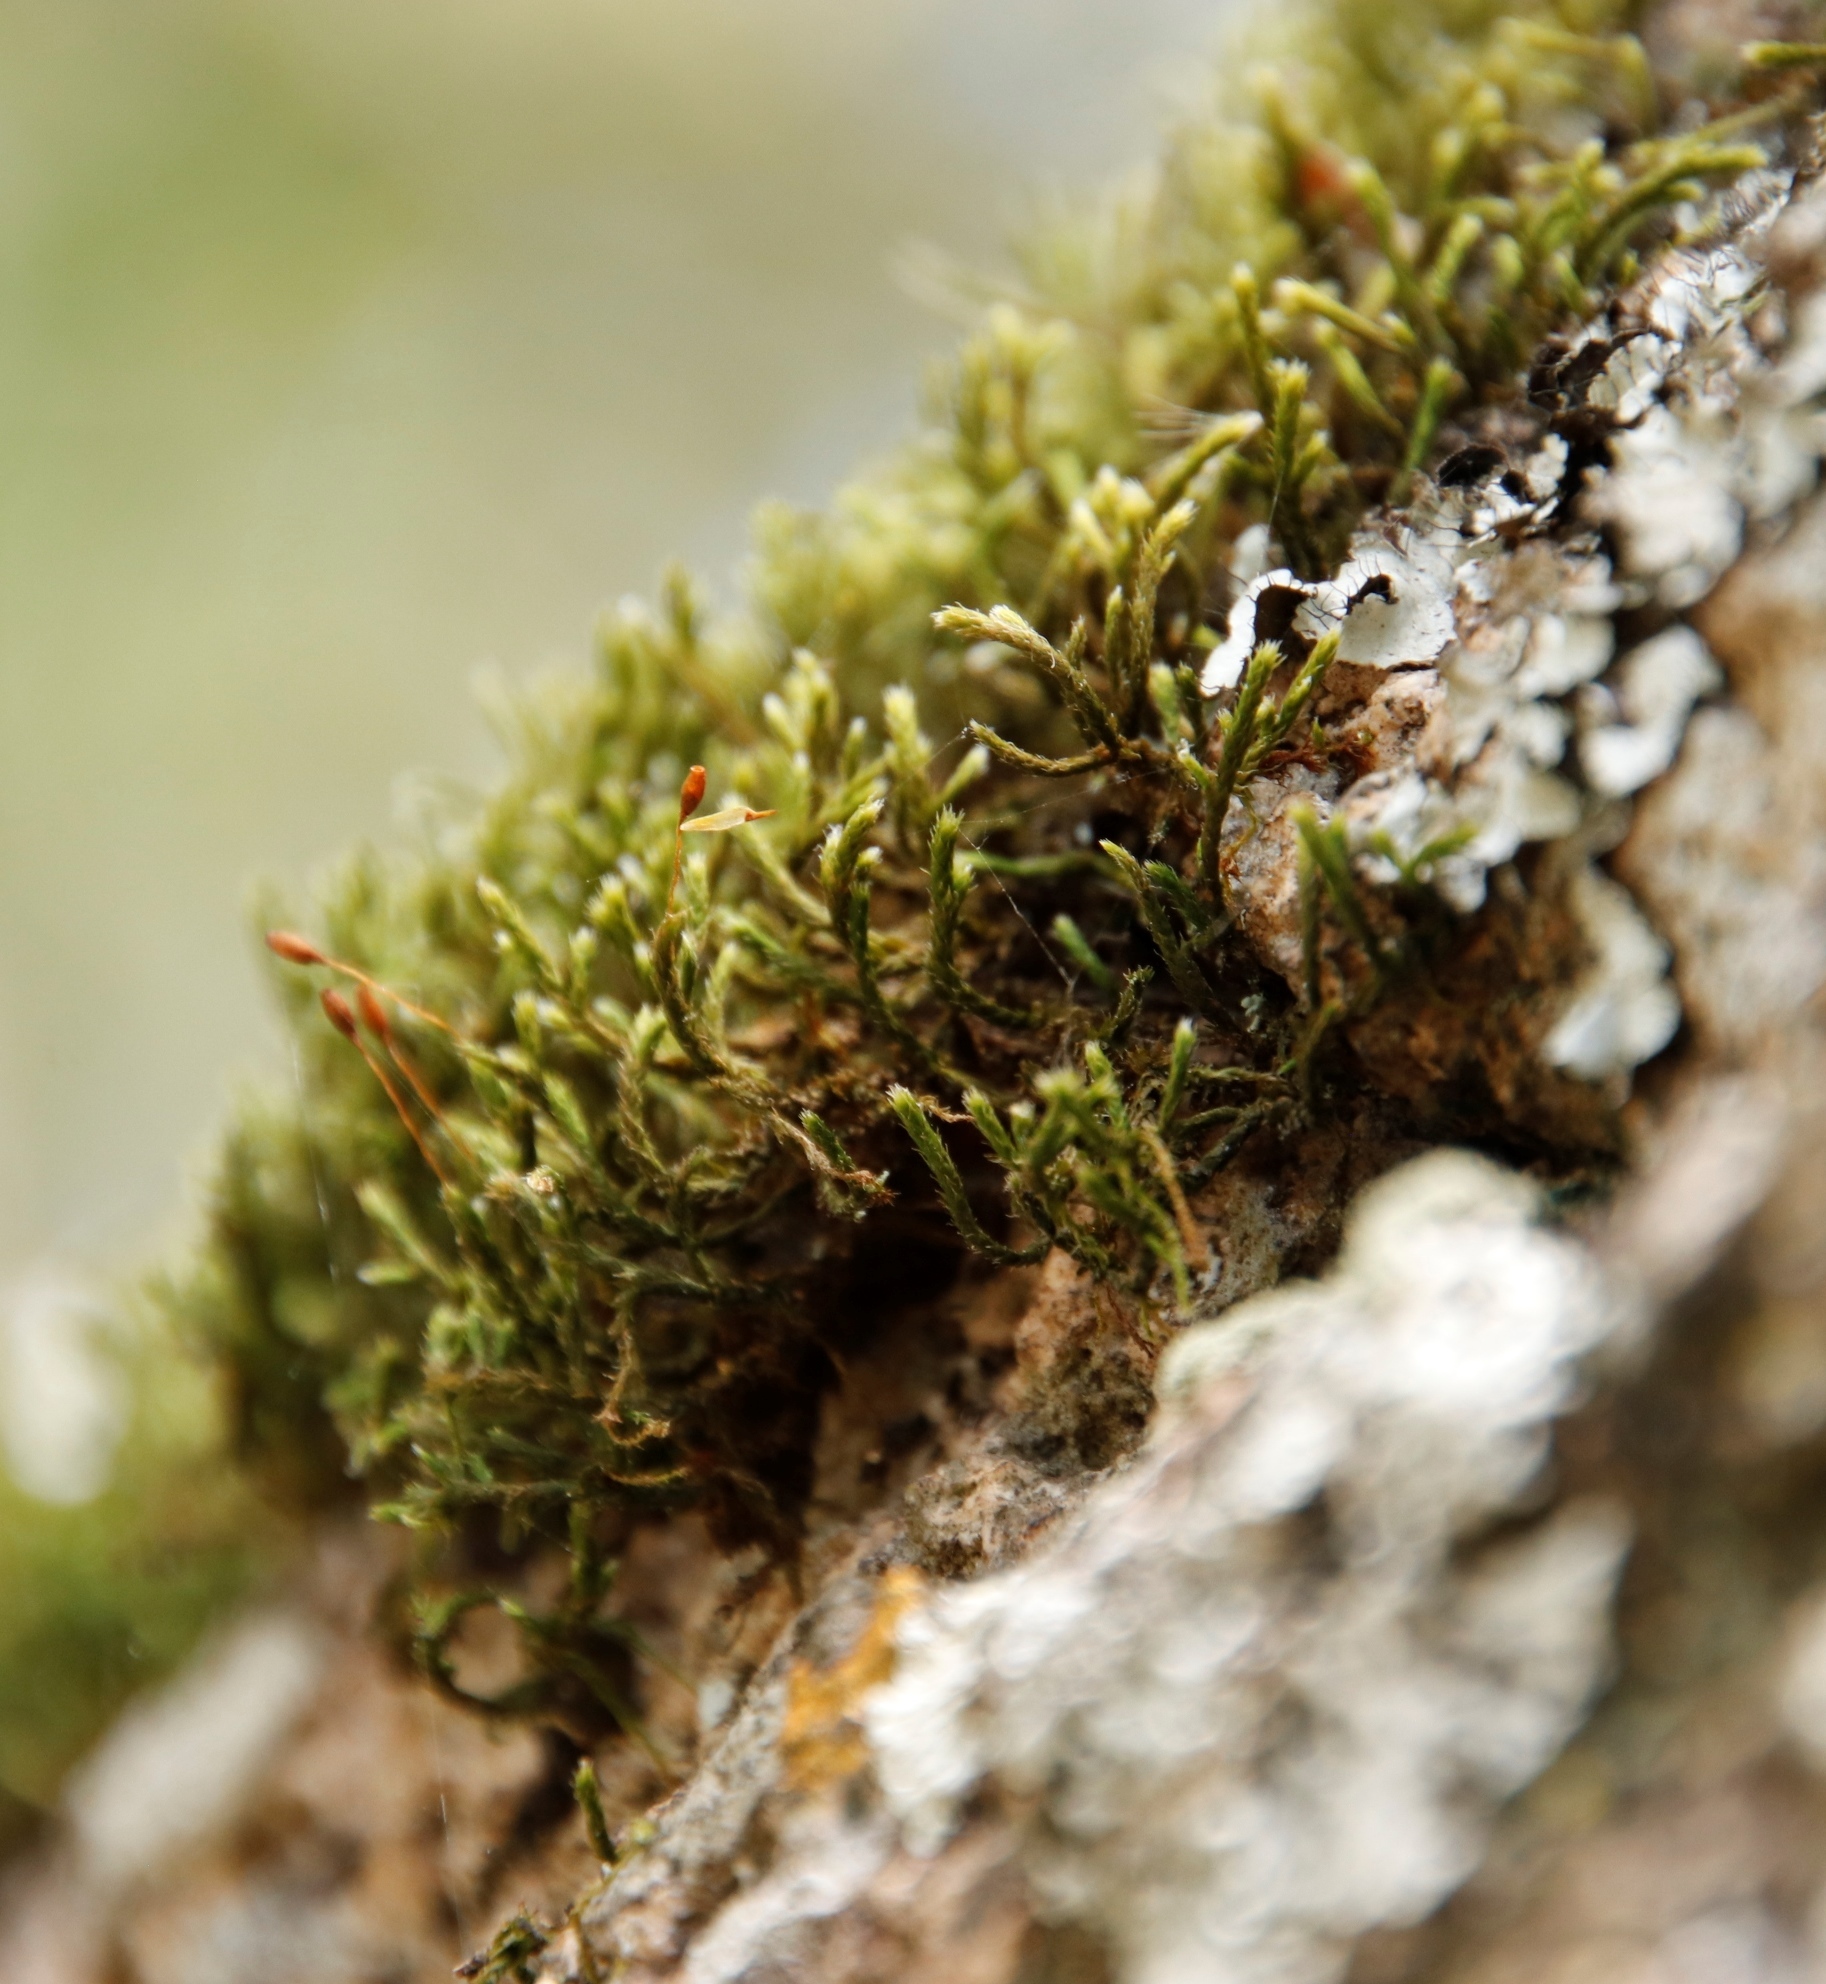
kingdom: Plantae
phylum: Bryophyta
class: Bryopsida
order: Hedwigiales
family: Hedwigiaceae
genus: Braunia
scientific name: Braunia secunda
